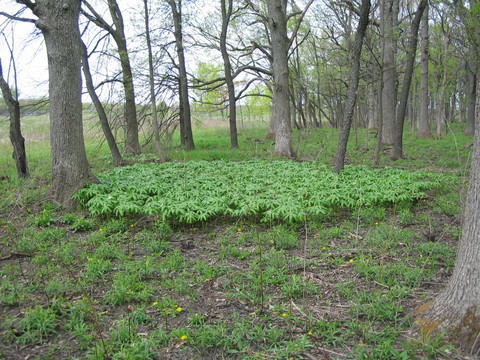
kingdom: Plantae
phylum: Tracheophyta
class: Magnoliopsida
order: Ranunculales
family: Berberidaceae
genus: Podophyllum
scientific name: Podophyllum peltatum
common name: Wild mandrake
